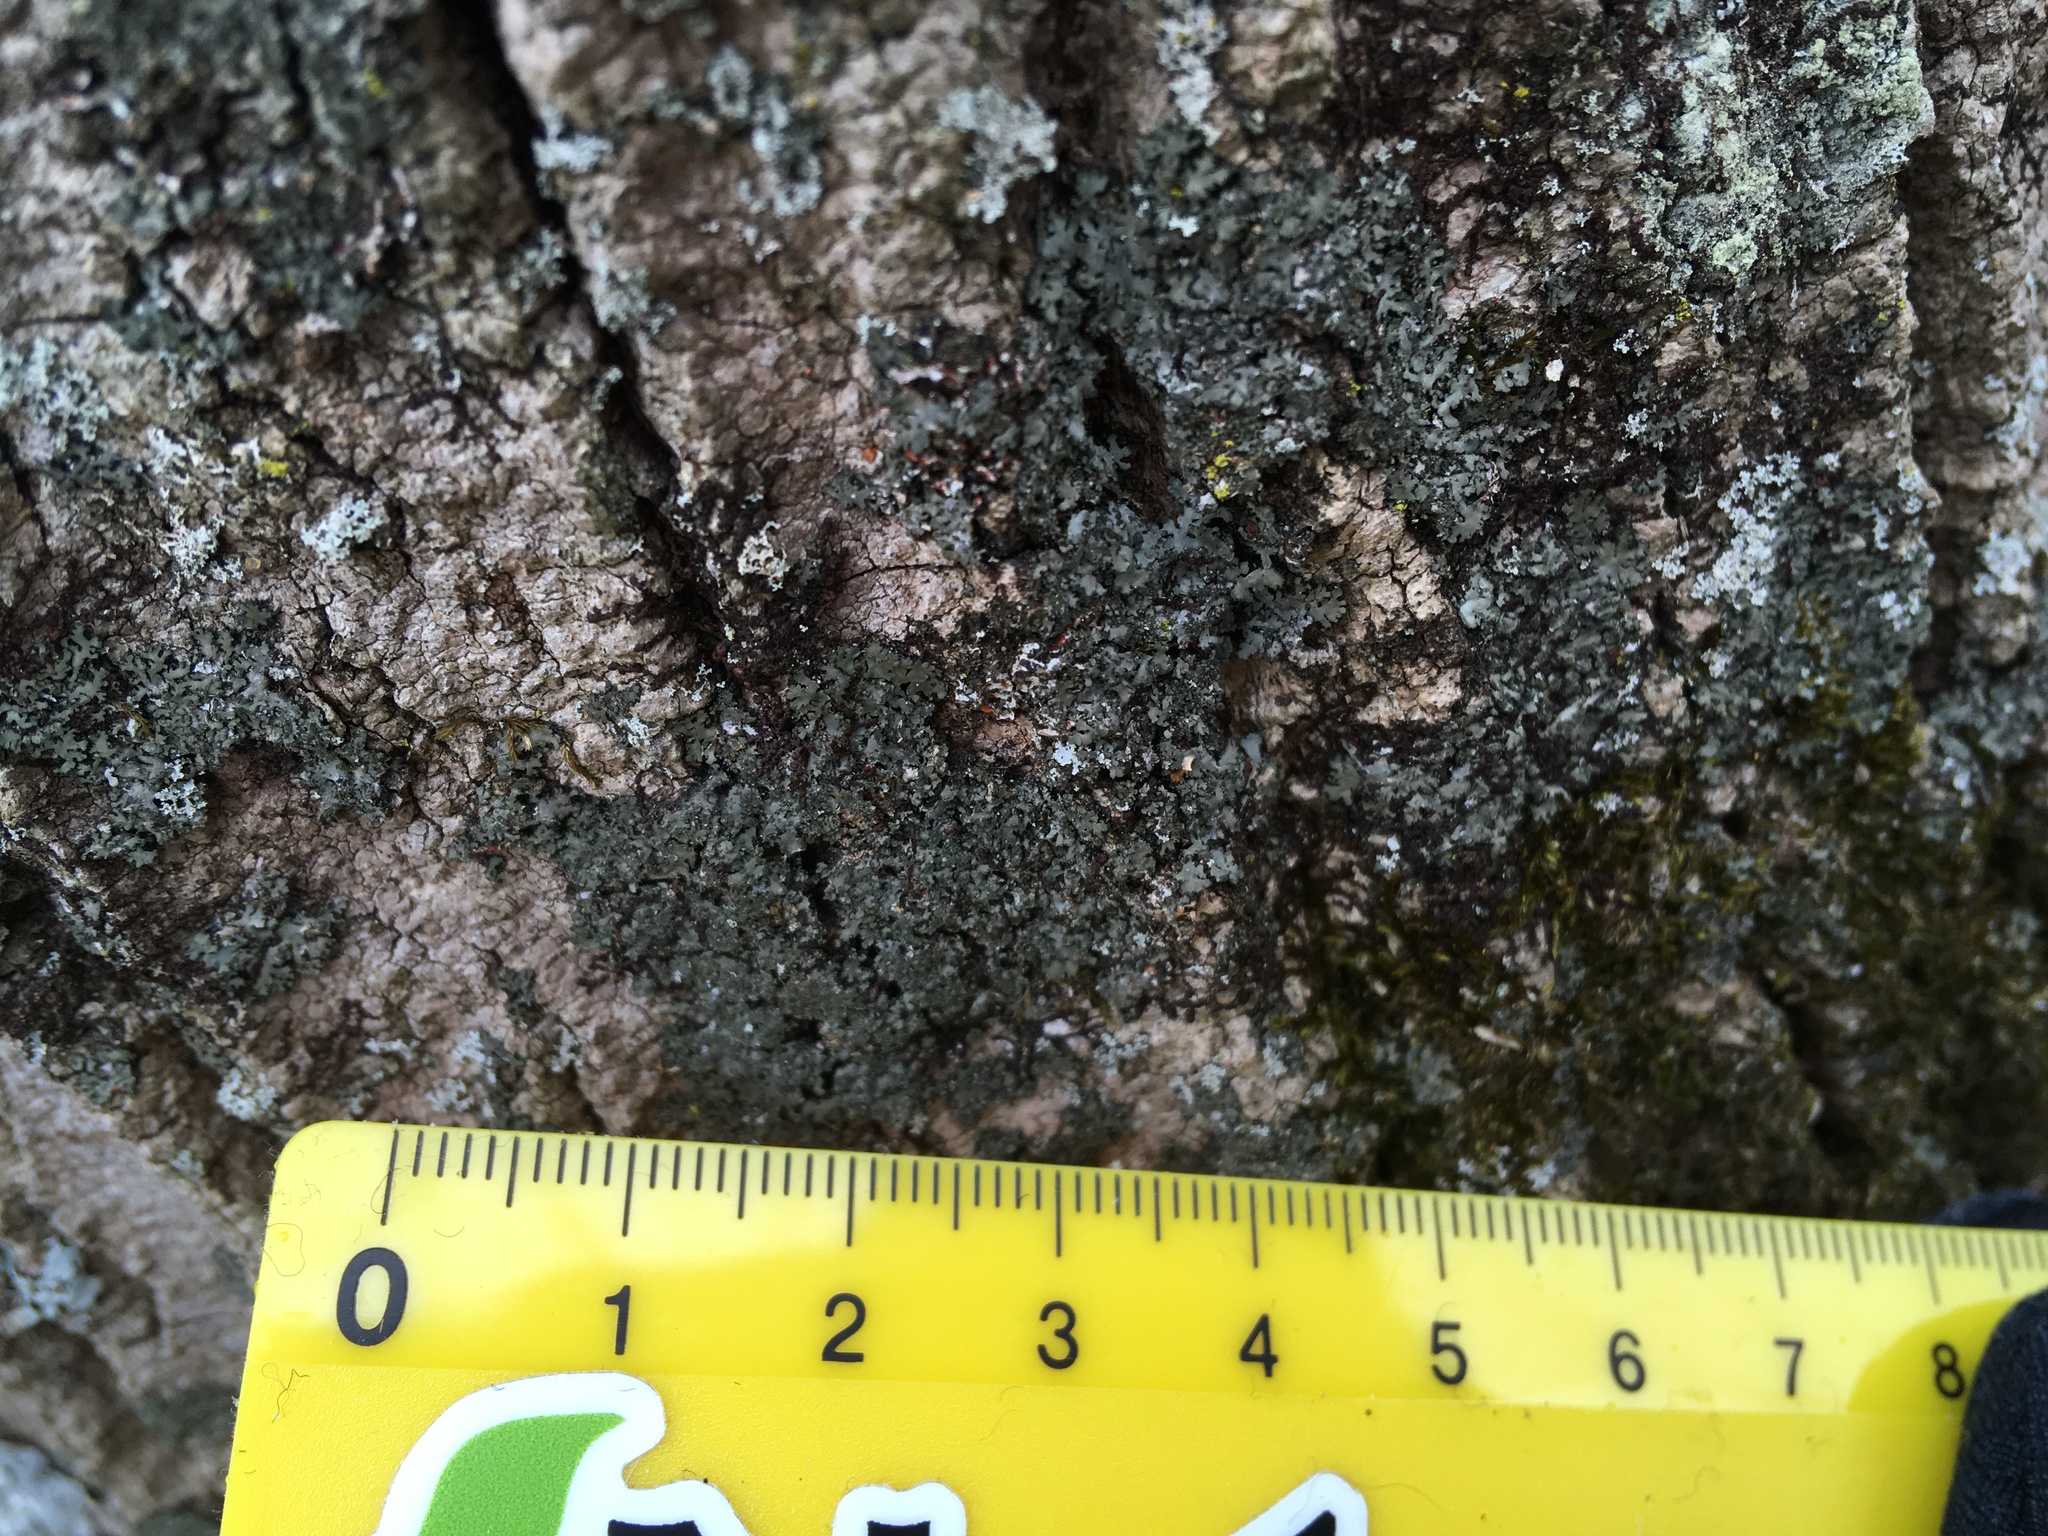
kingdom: Fungi
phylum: Ascomycota
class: Lecanoromycetes
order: Caliciales
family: Physciaceae
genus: Phaeophyscia
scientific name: Phaeophyscia rubropulchra
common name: Orange-cored shadow lichen
